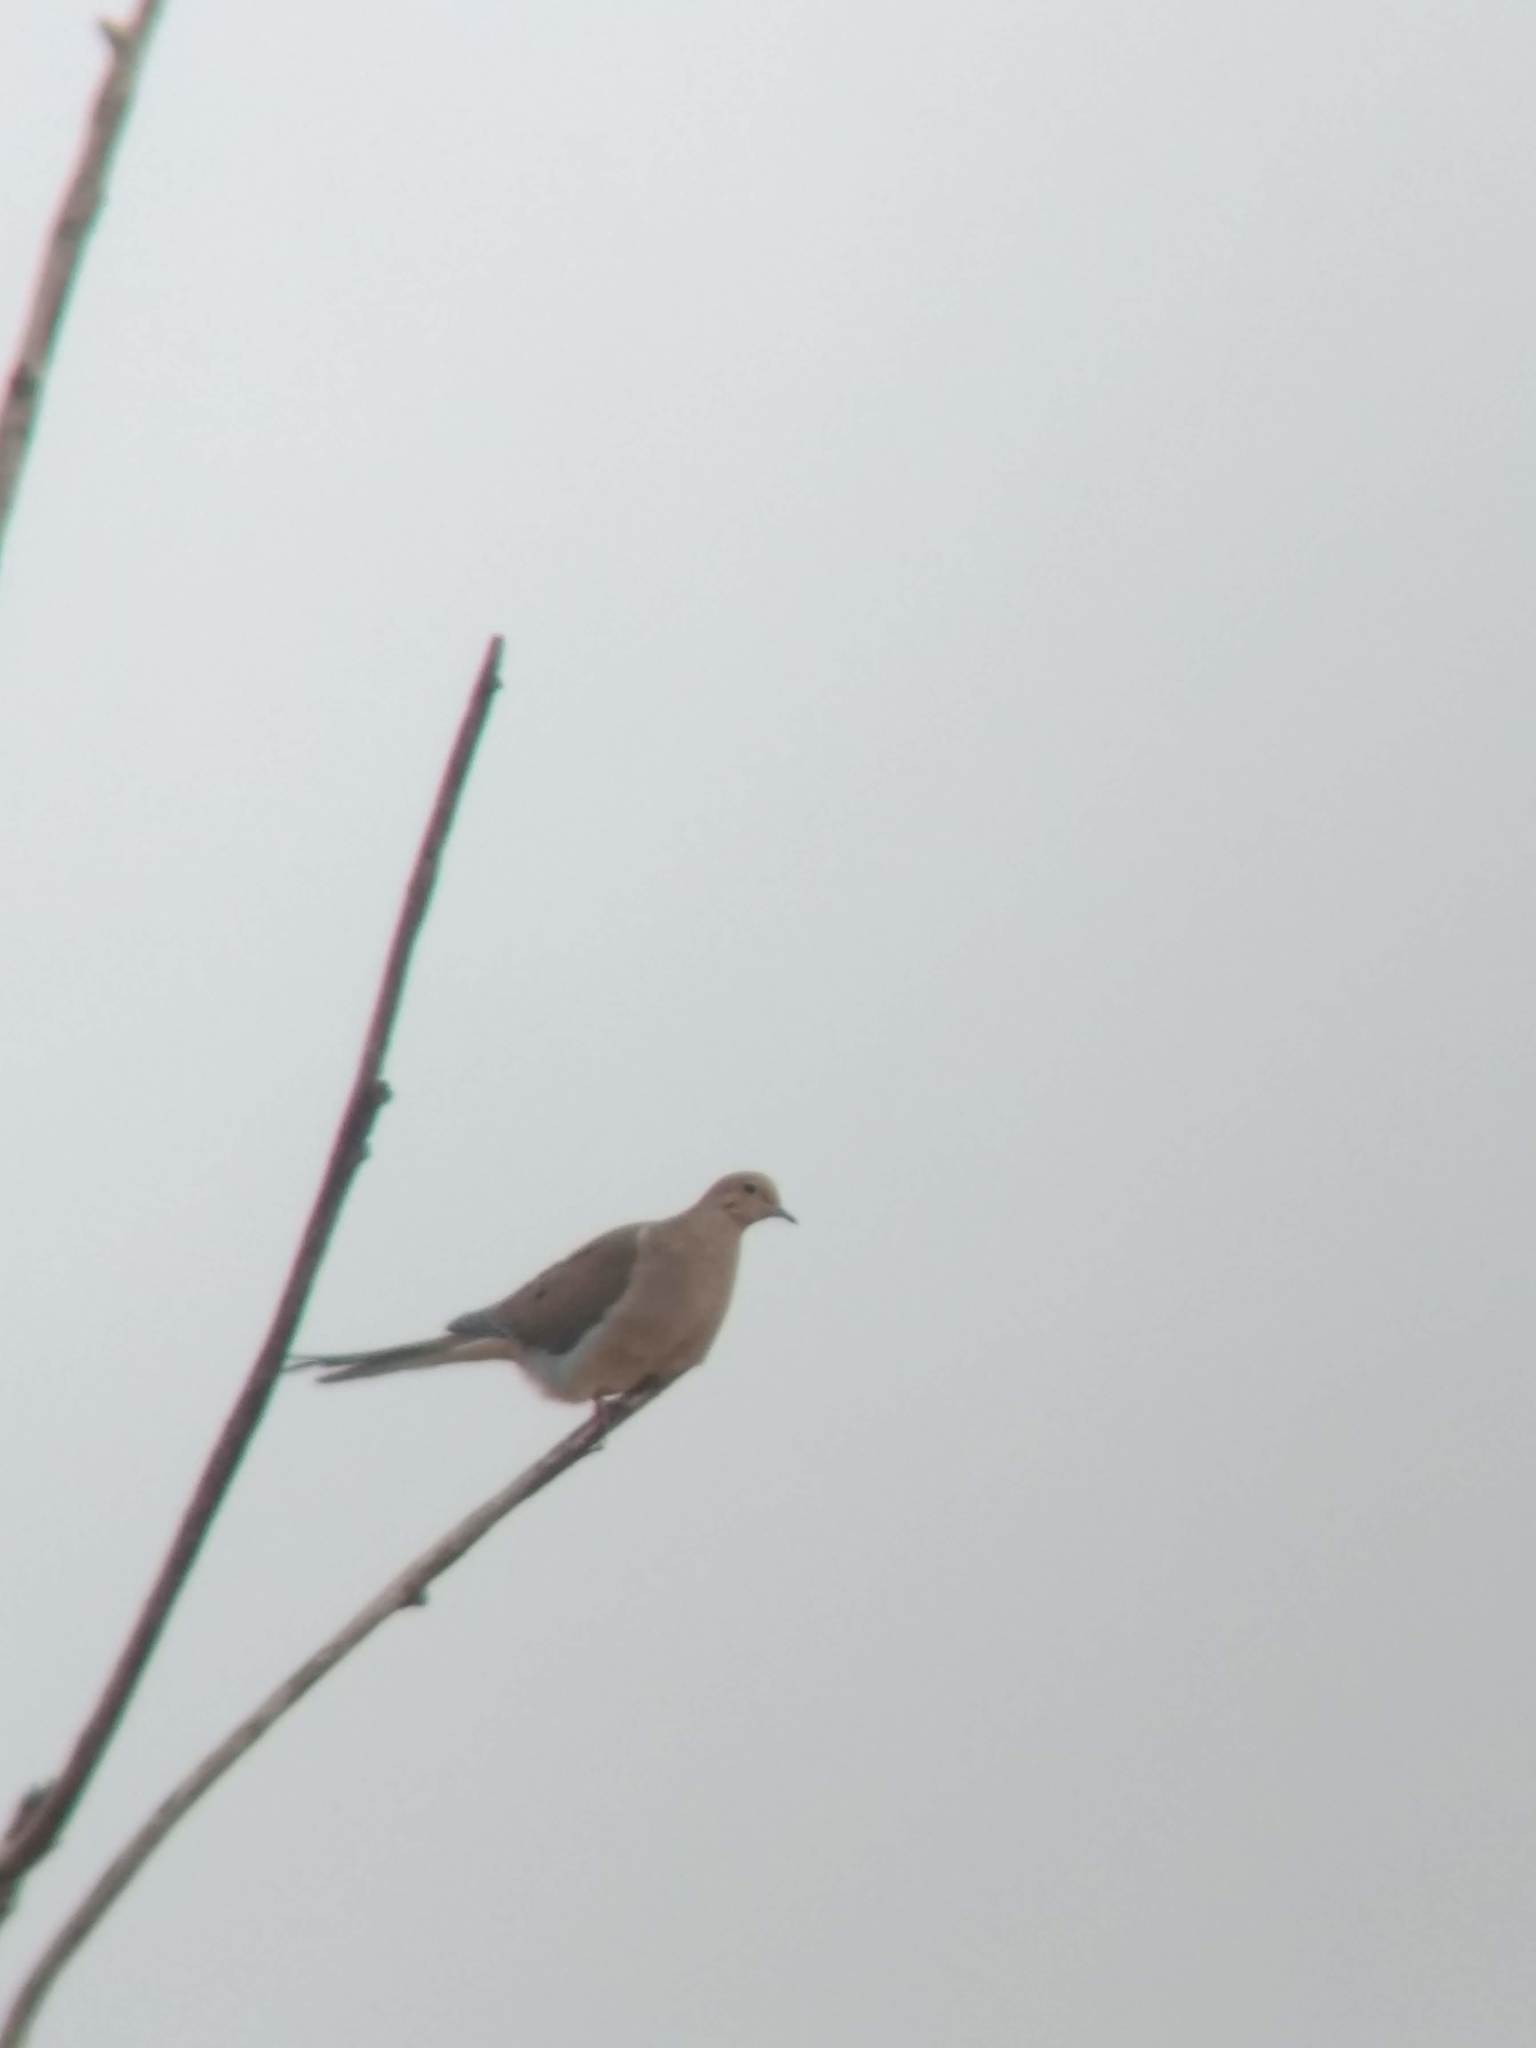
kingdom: Animalia
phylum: Chordata
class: Aves
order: Columbiformes
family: Columbidae
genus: Zenaida
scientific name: Zenaida macroura
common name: Mourning dove
